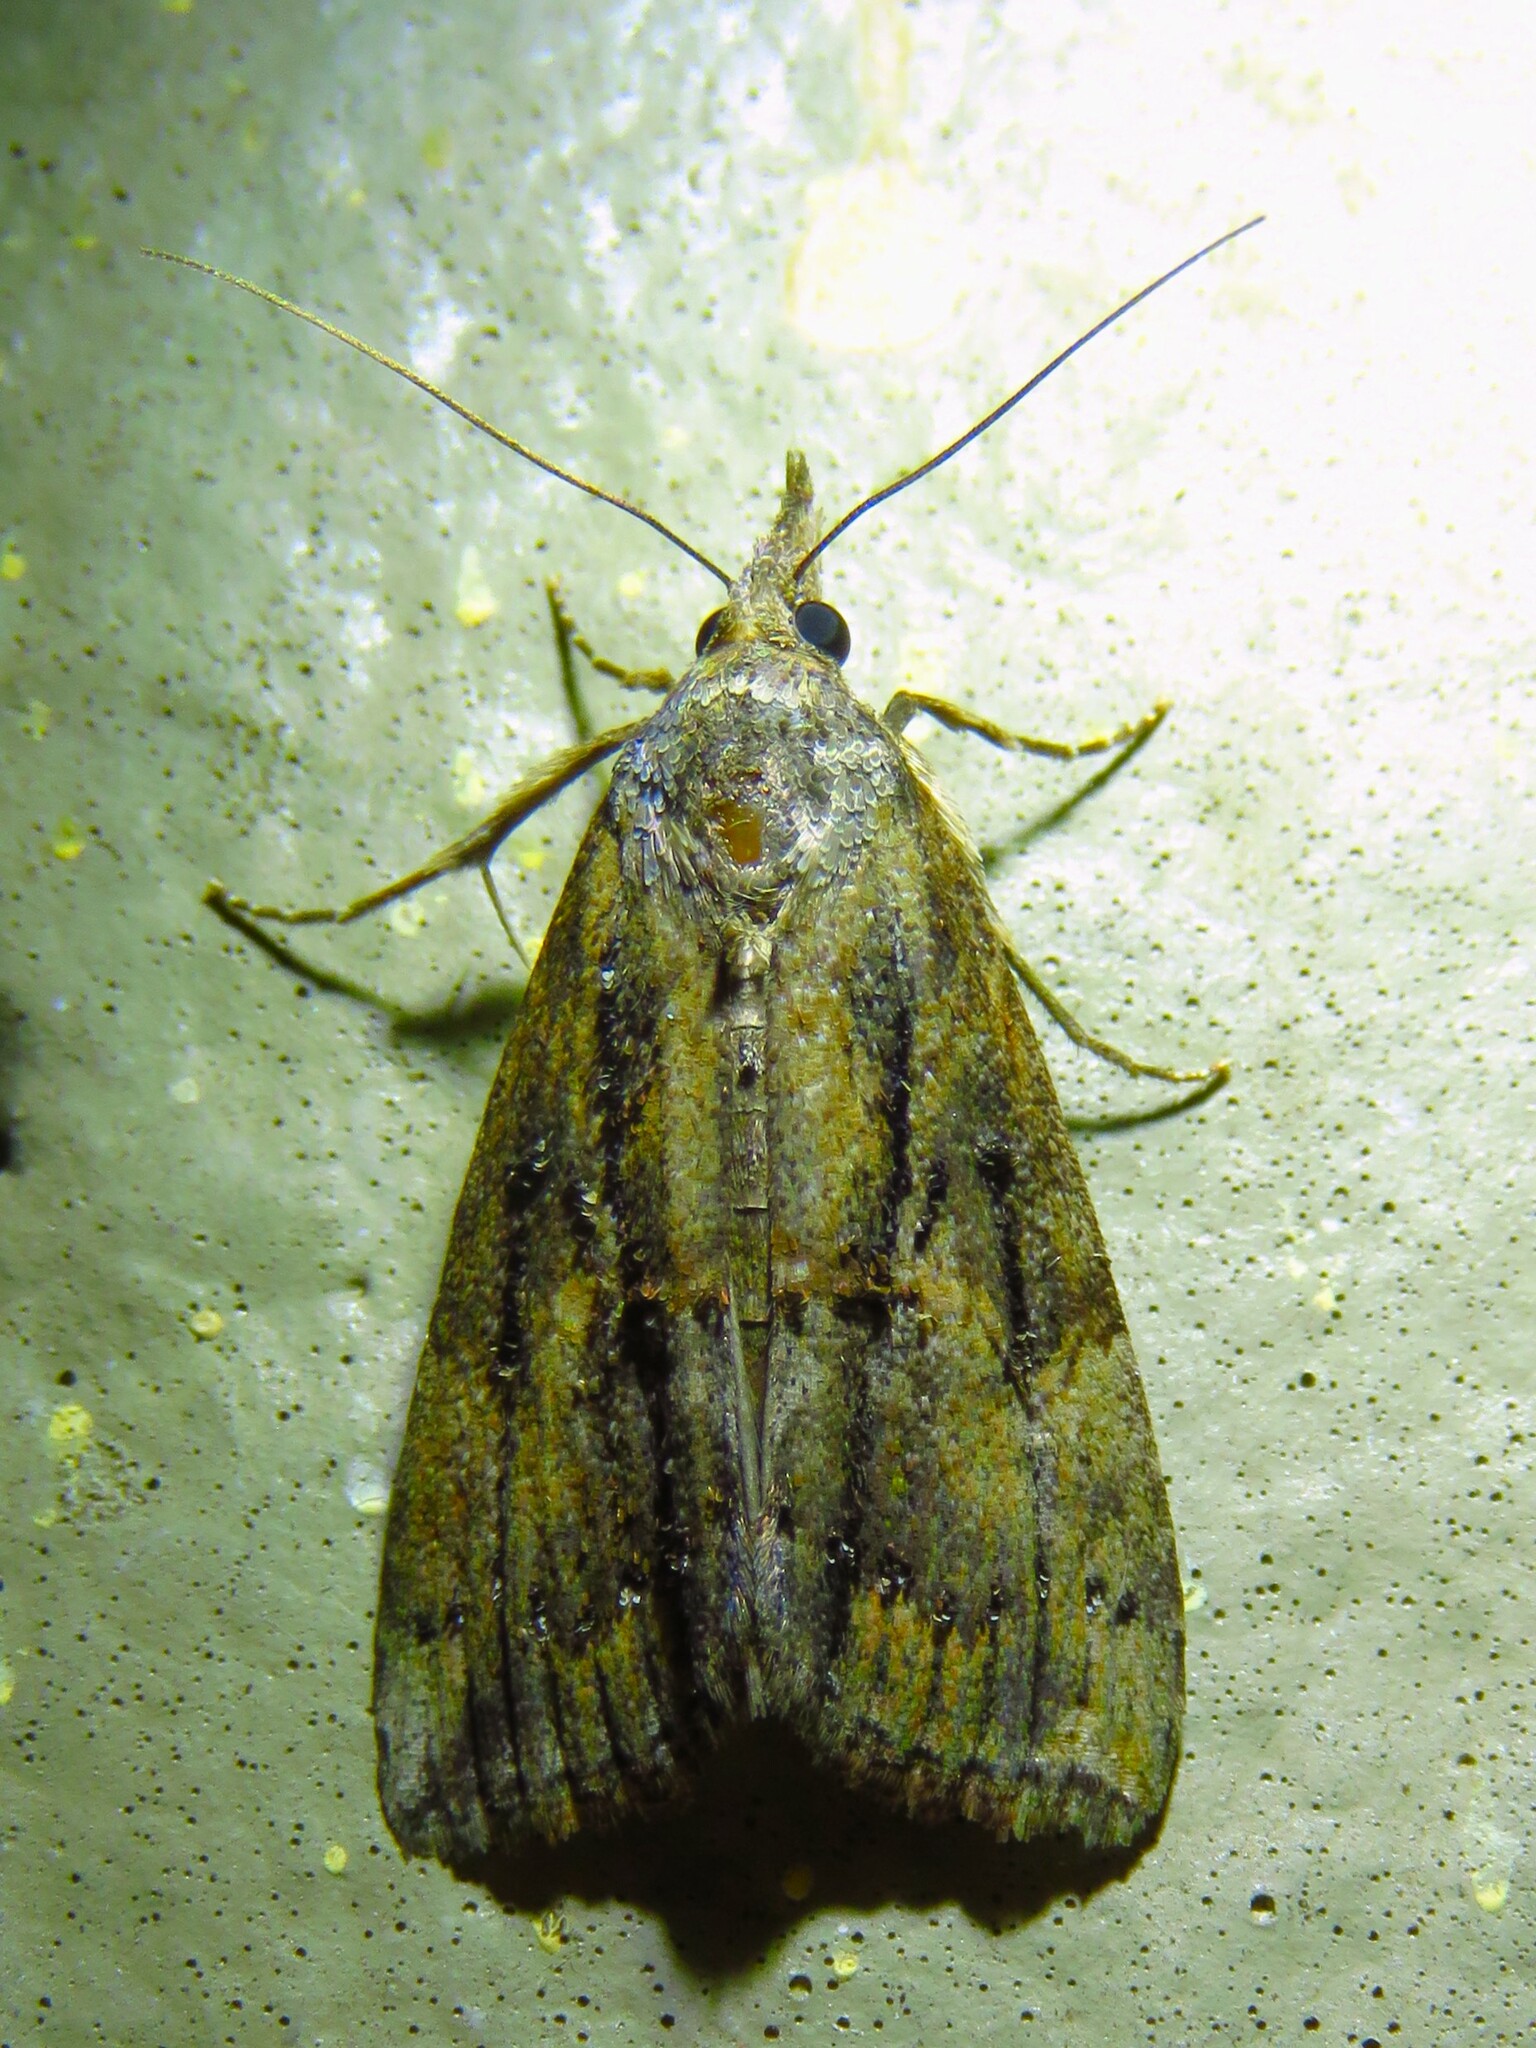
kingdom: Animalia
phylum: Arthropoda
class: Insecta
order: Lepidoptera
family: Erebidae
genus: Hypena
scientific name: Hypena scabra
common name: Green cloverworm
